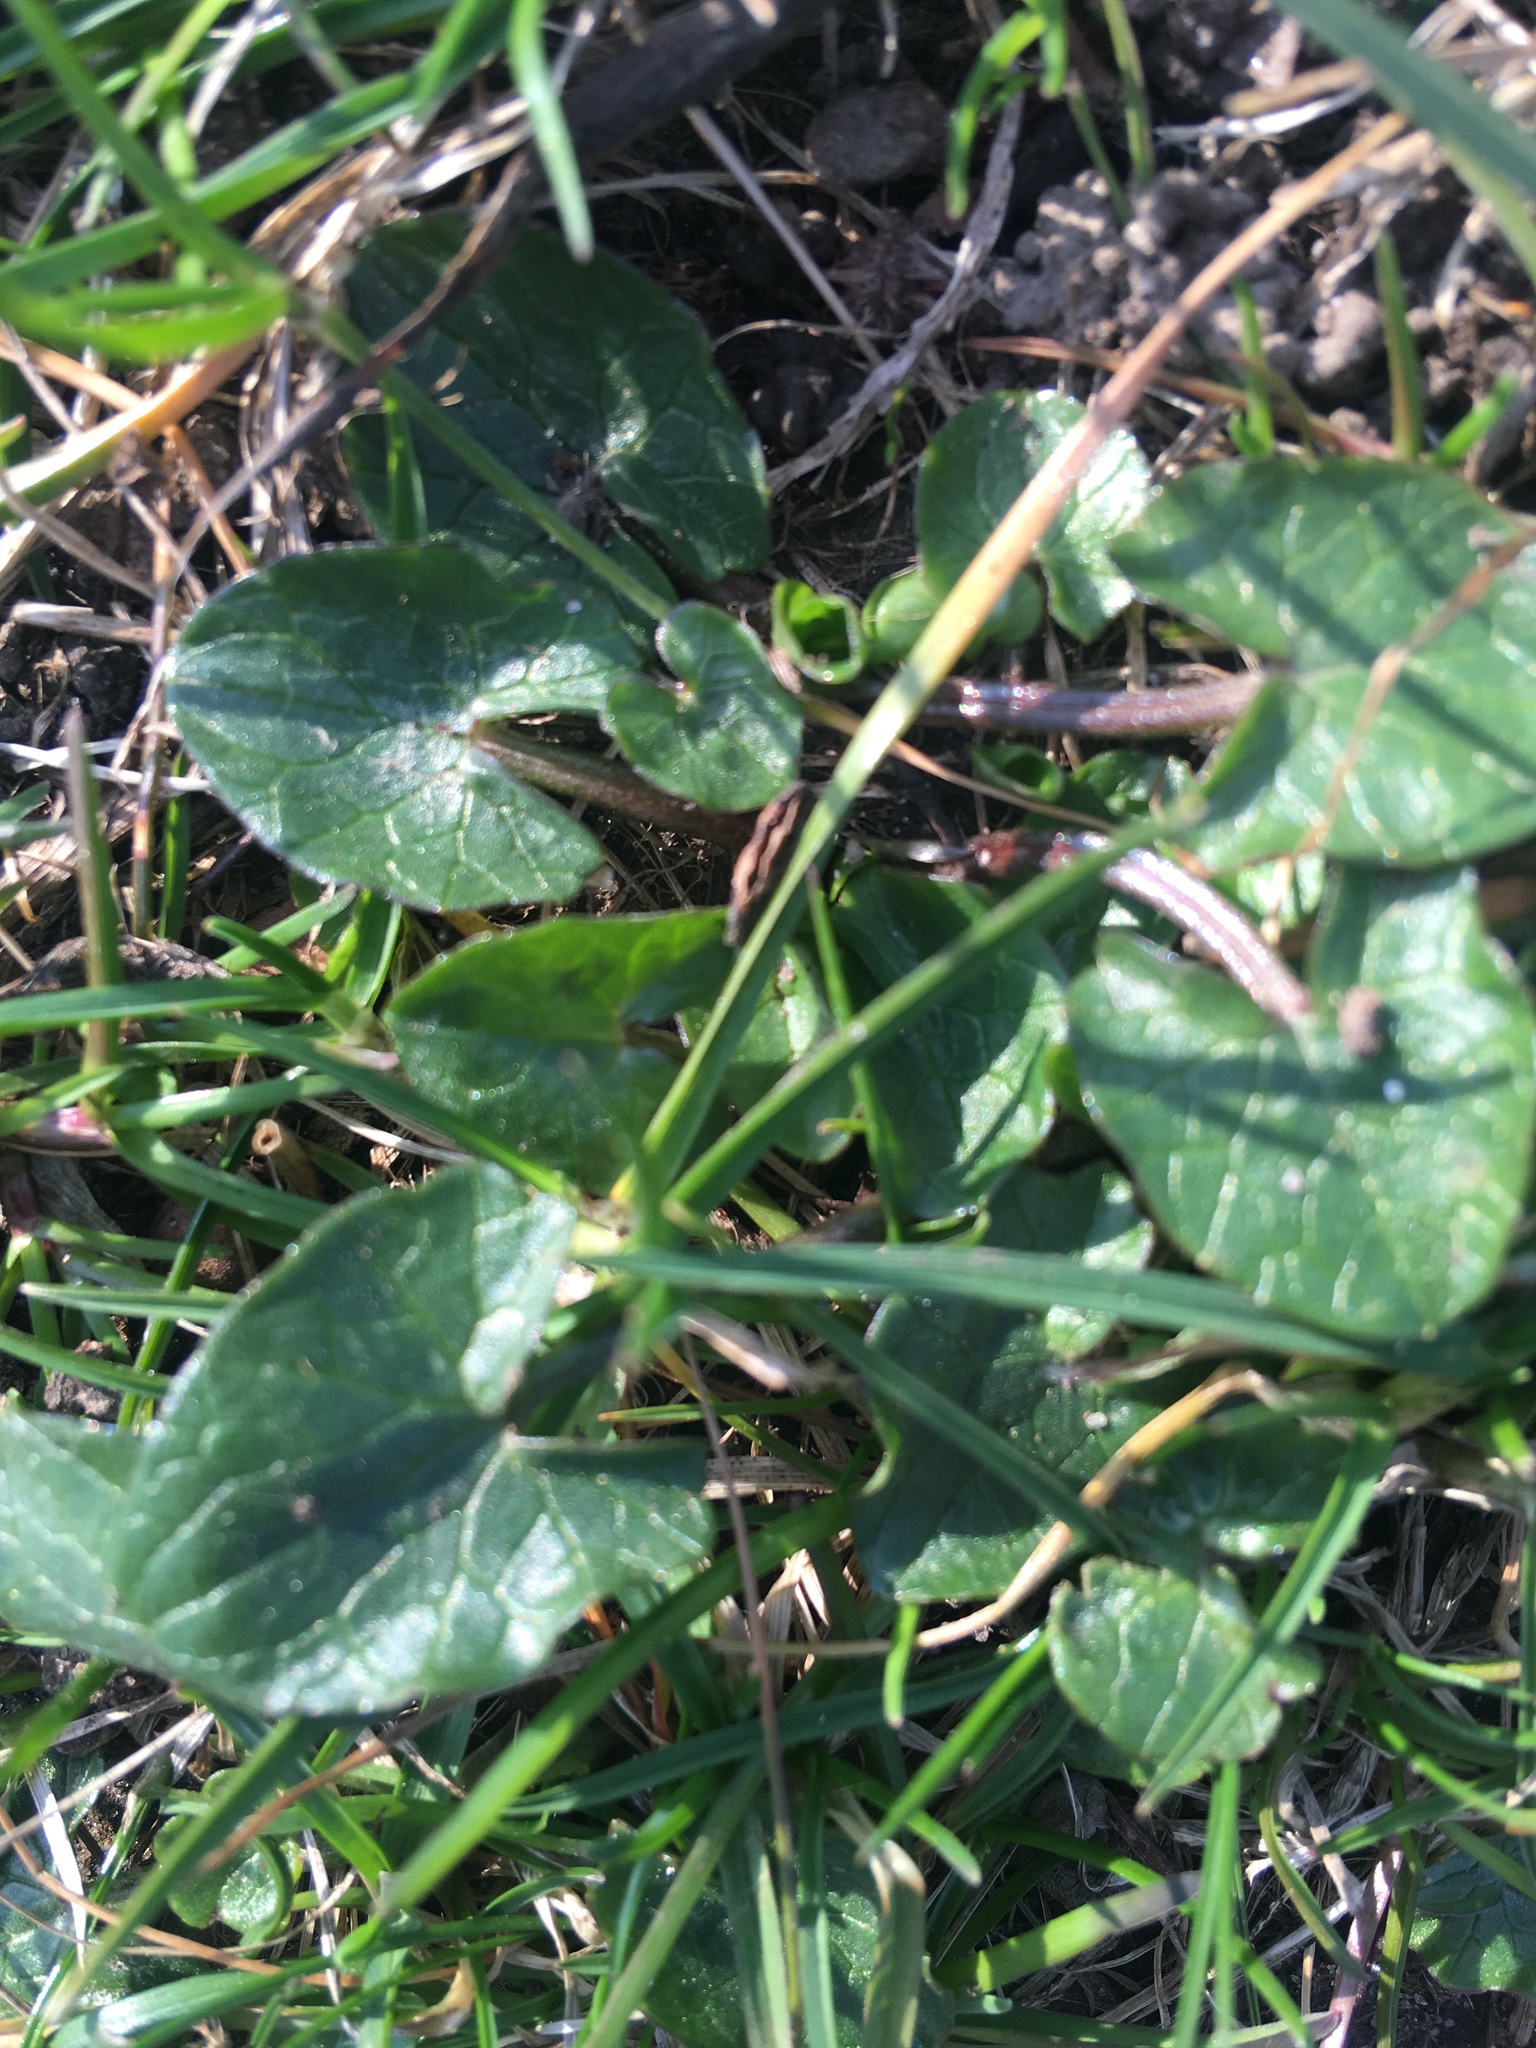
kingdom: Plantae
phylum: Tracheophyta
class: Magnoliopsida
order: Ranunculales
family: Ranunculaceae
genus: Ficaria
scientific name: Ficaria verna
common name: Lesser celandine
